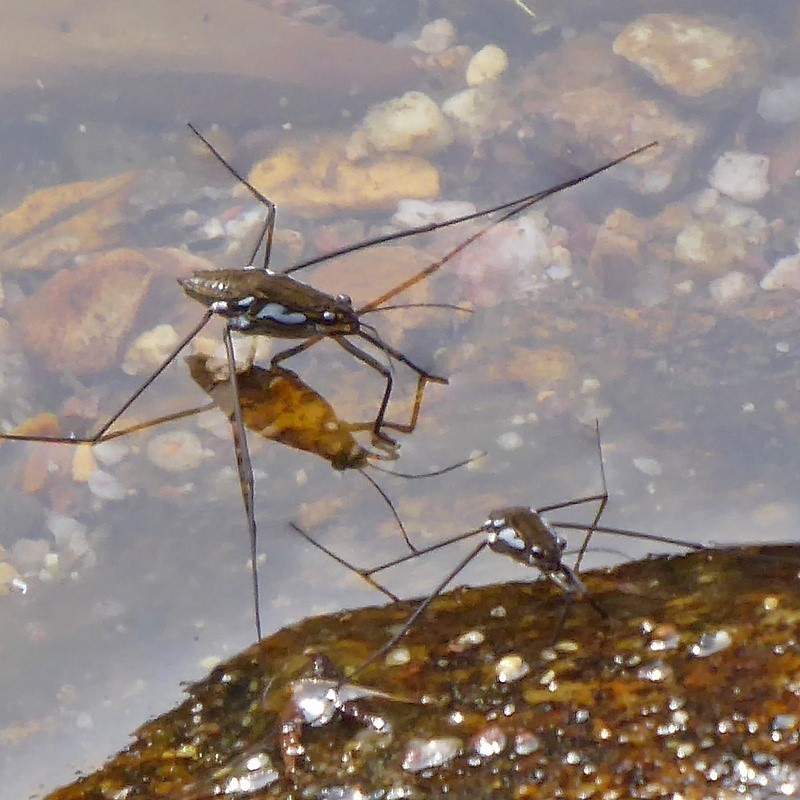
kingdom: Animalia
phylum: Arthropoda
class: Insecta
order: Hemiptera
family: Gerridae
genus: Tenagogerris
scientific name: Tenagogerris euphrosyne
